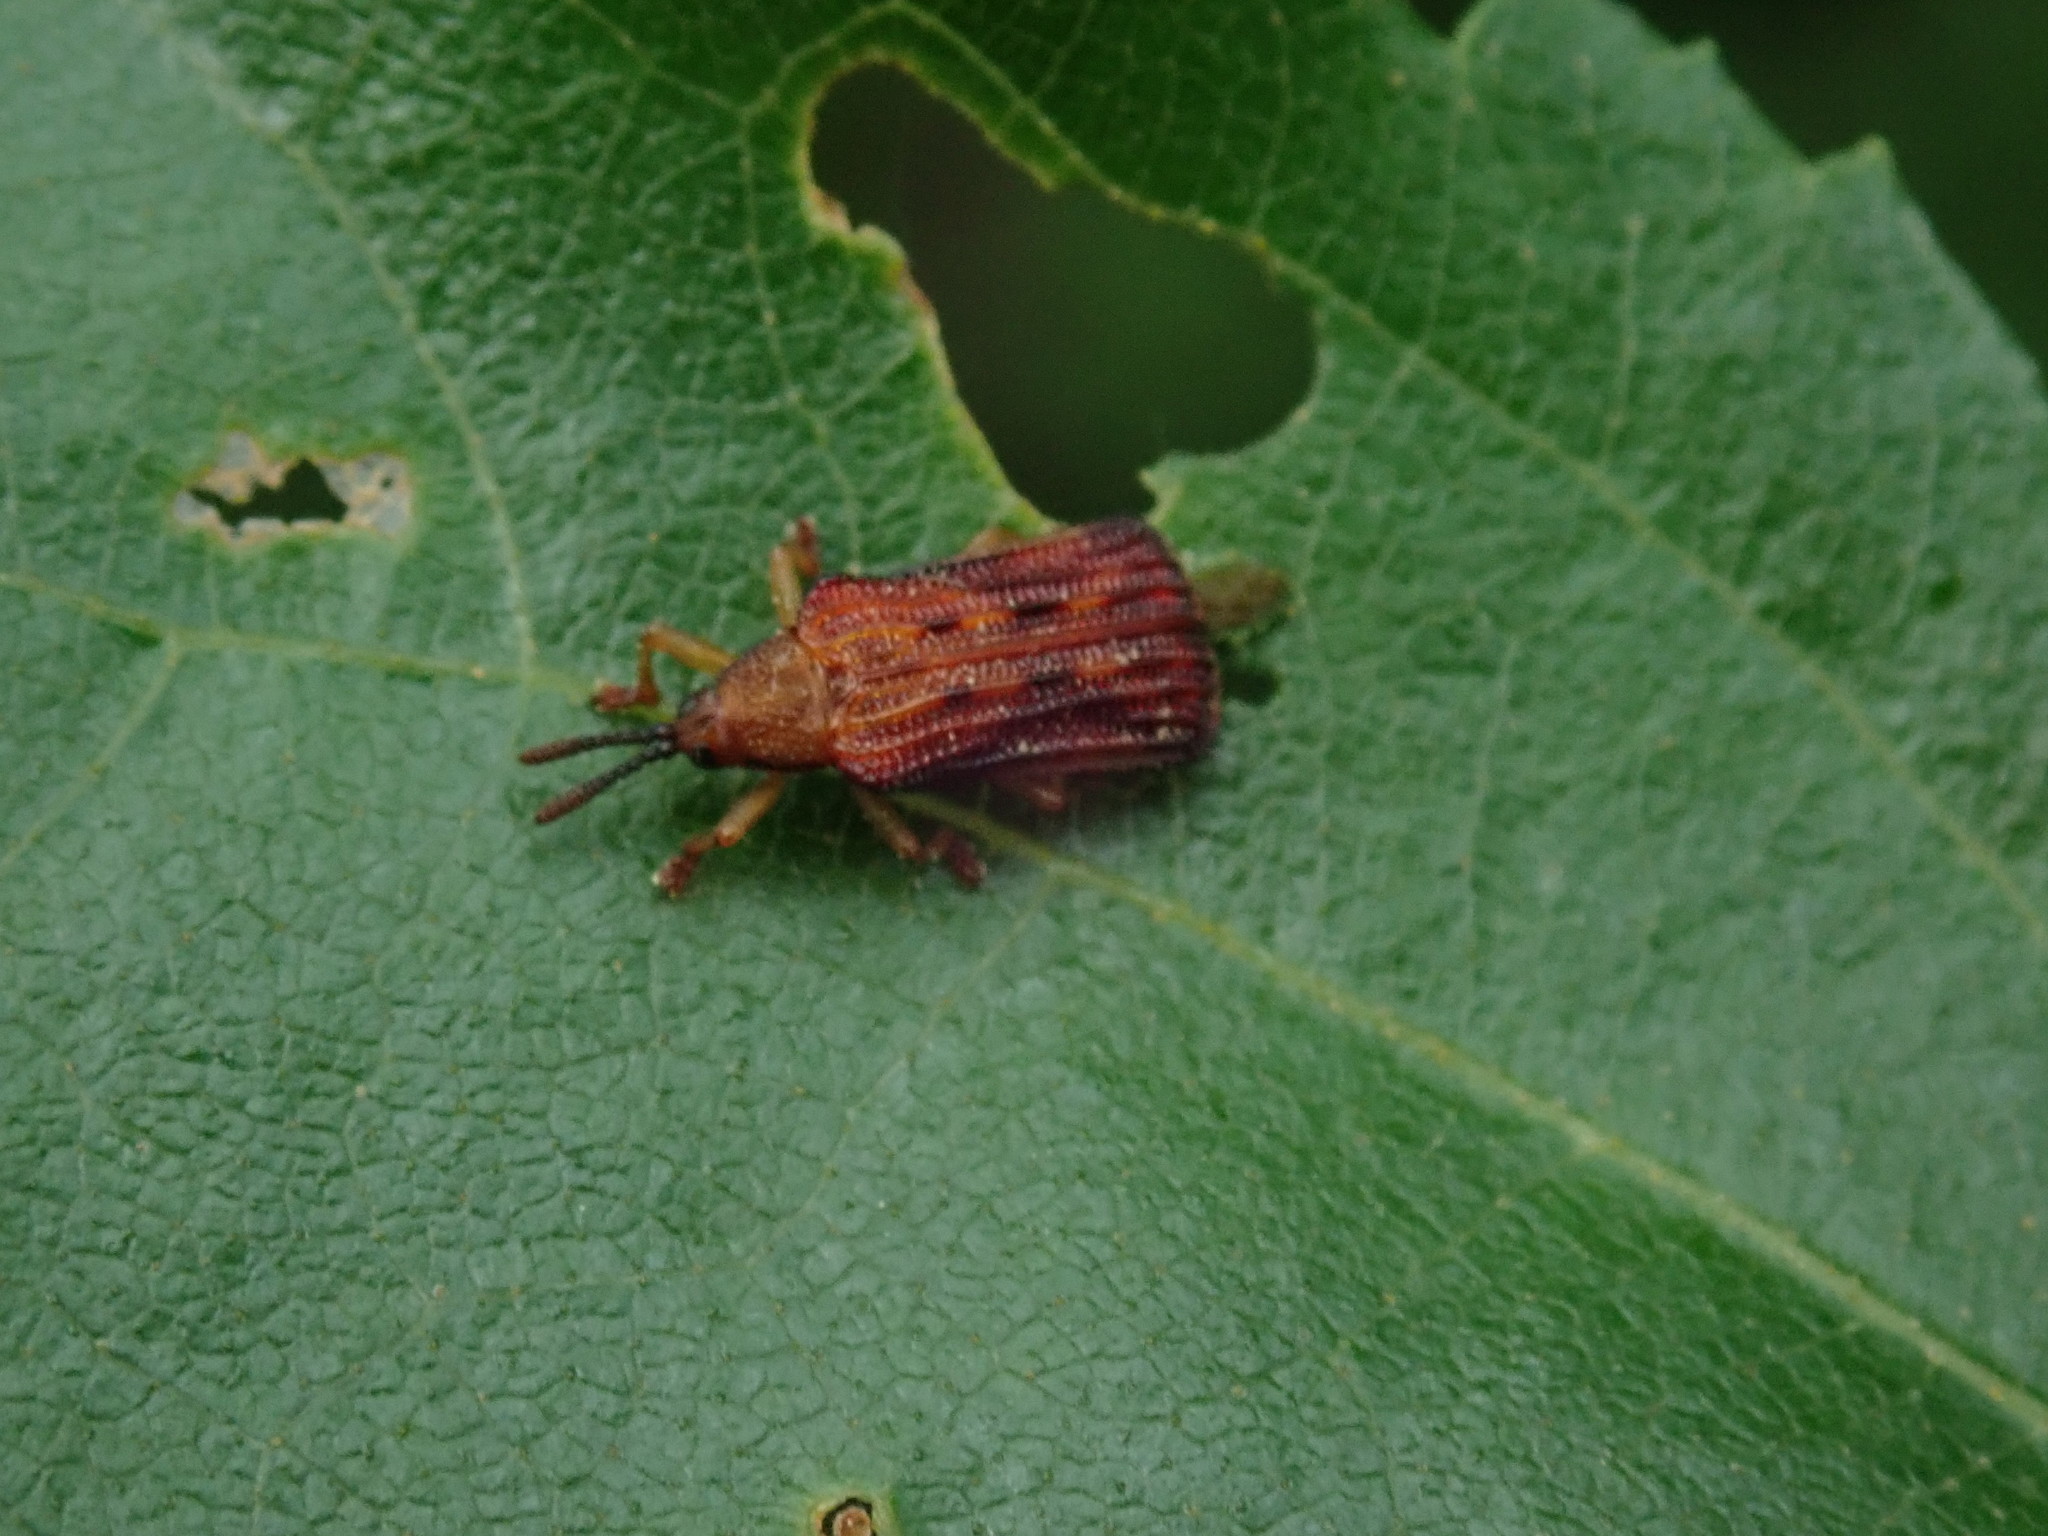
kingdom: Animalia
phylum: Arthropoda
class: Insecta
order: Coleoptera
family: Chrysomelidae
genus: Baliosus
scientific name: Baliosus nervosus
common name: Basswood leaf miner
